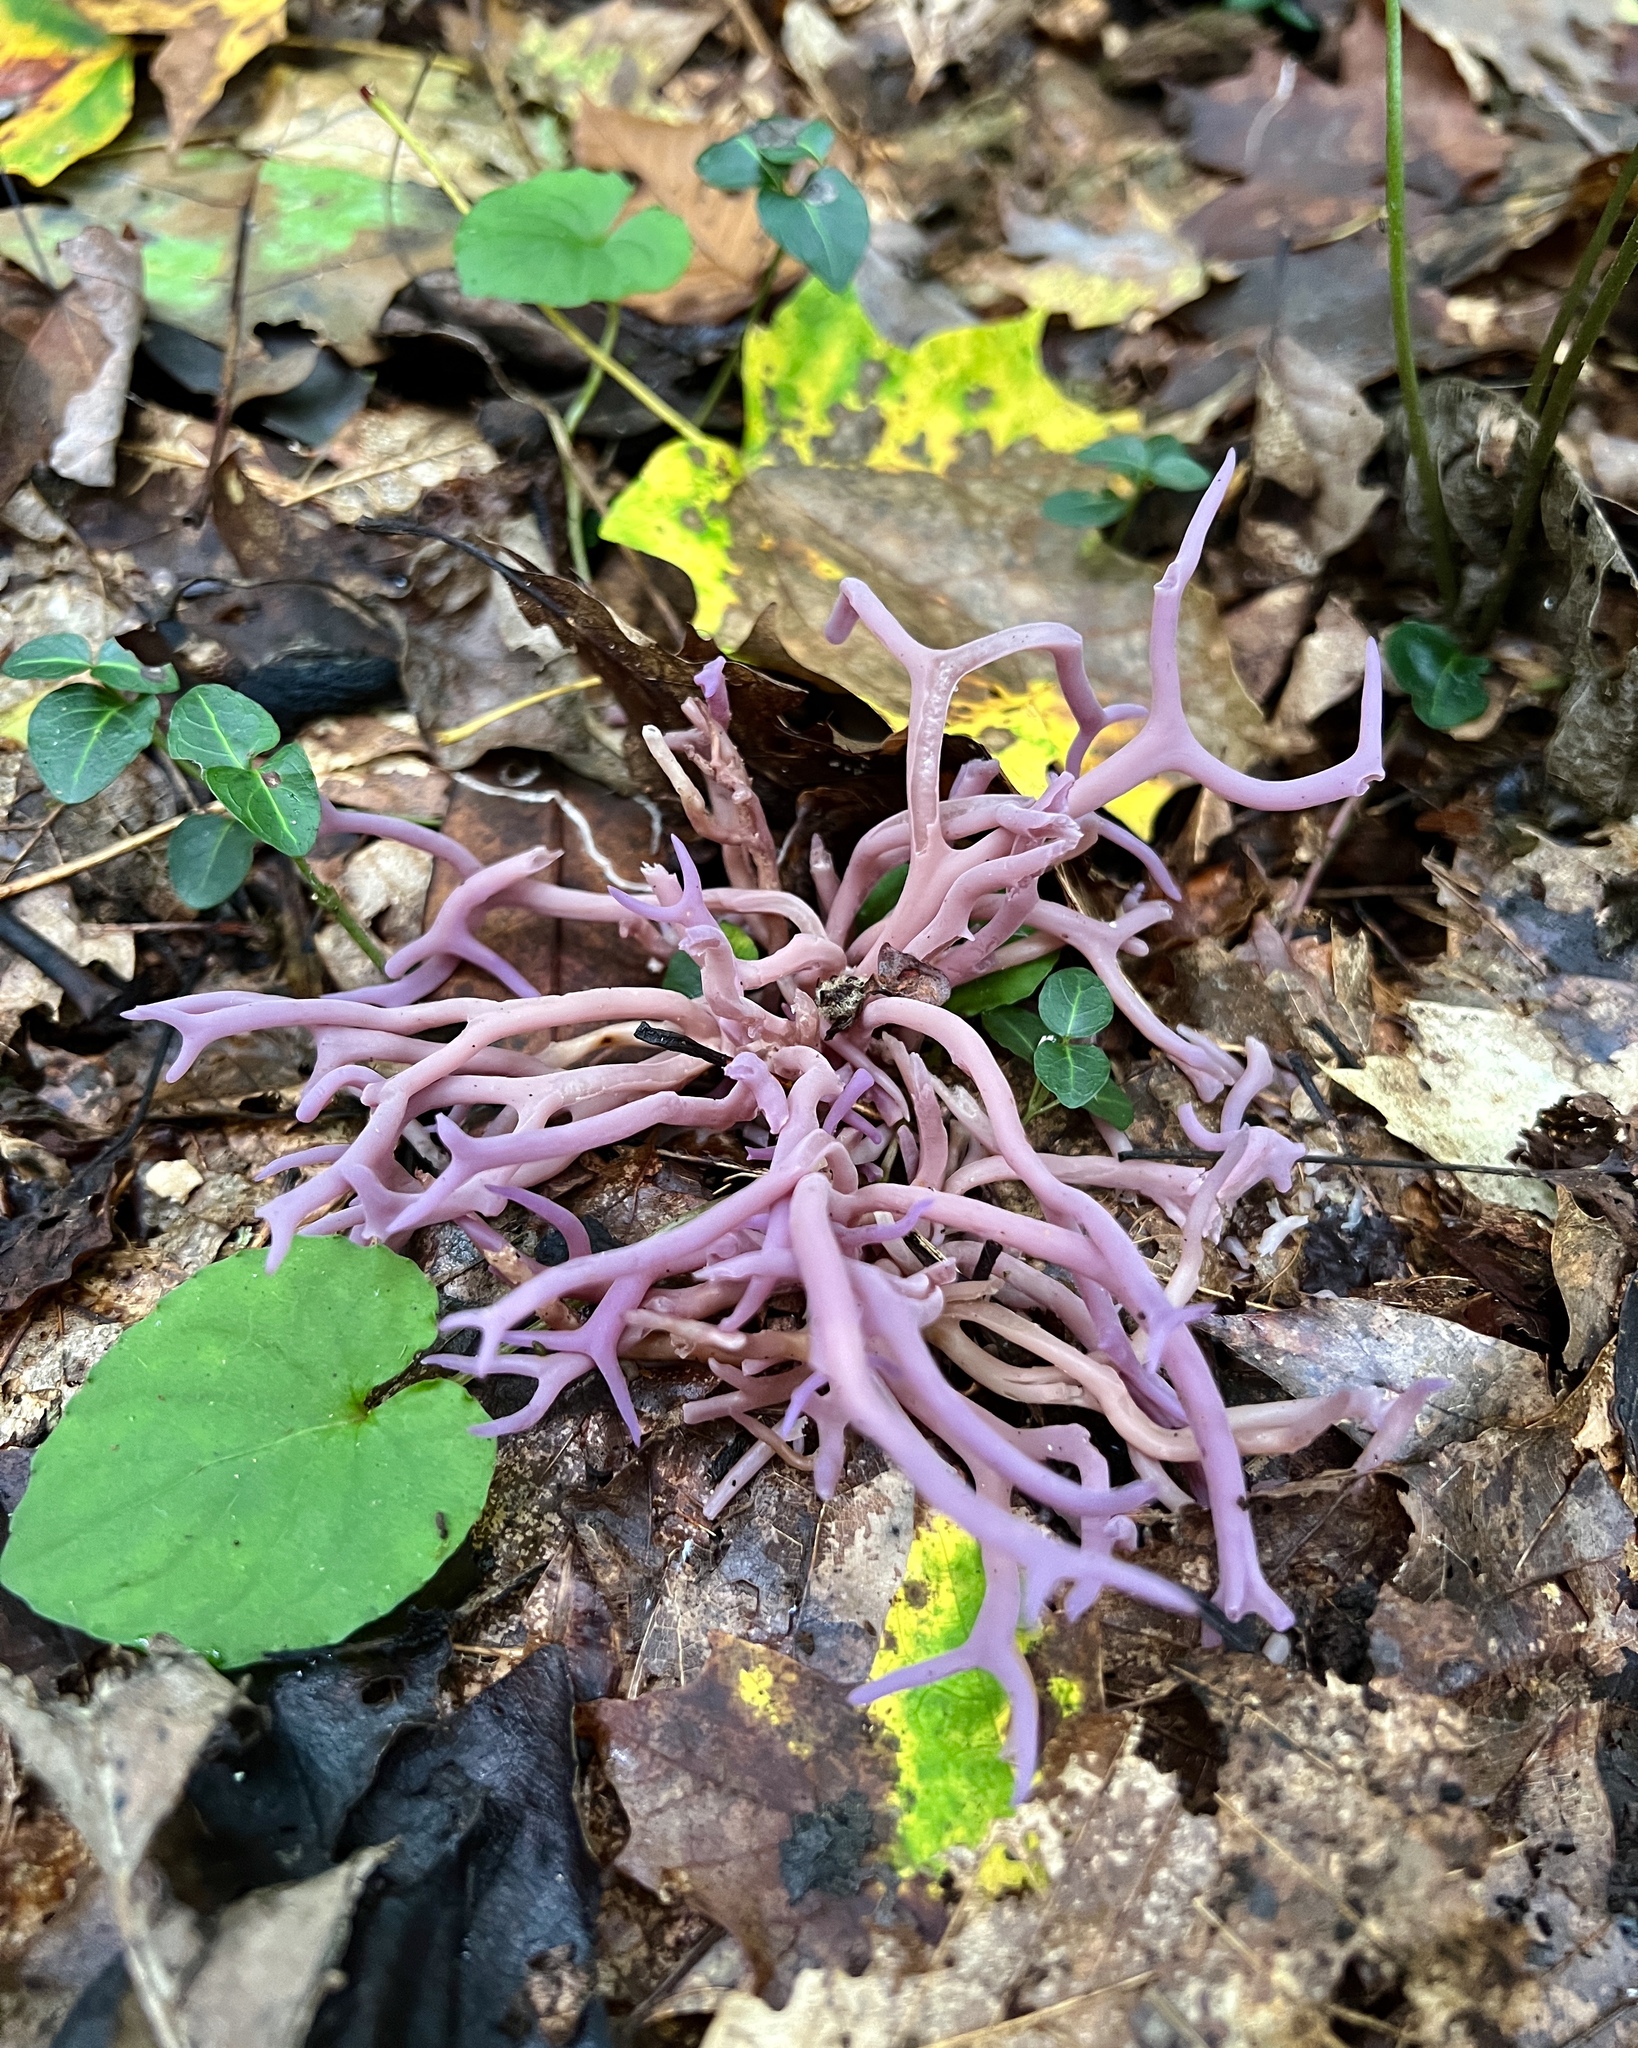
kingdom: Fungi
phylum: Basidiomycota
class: Agaricomycetes
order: Agaricales
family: Clavariaceae
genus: Clavaria
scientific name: Clavaria zollingeri
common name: Violet coral
